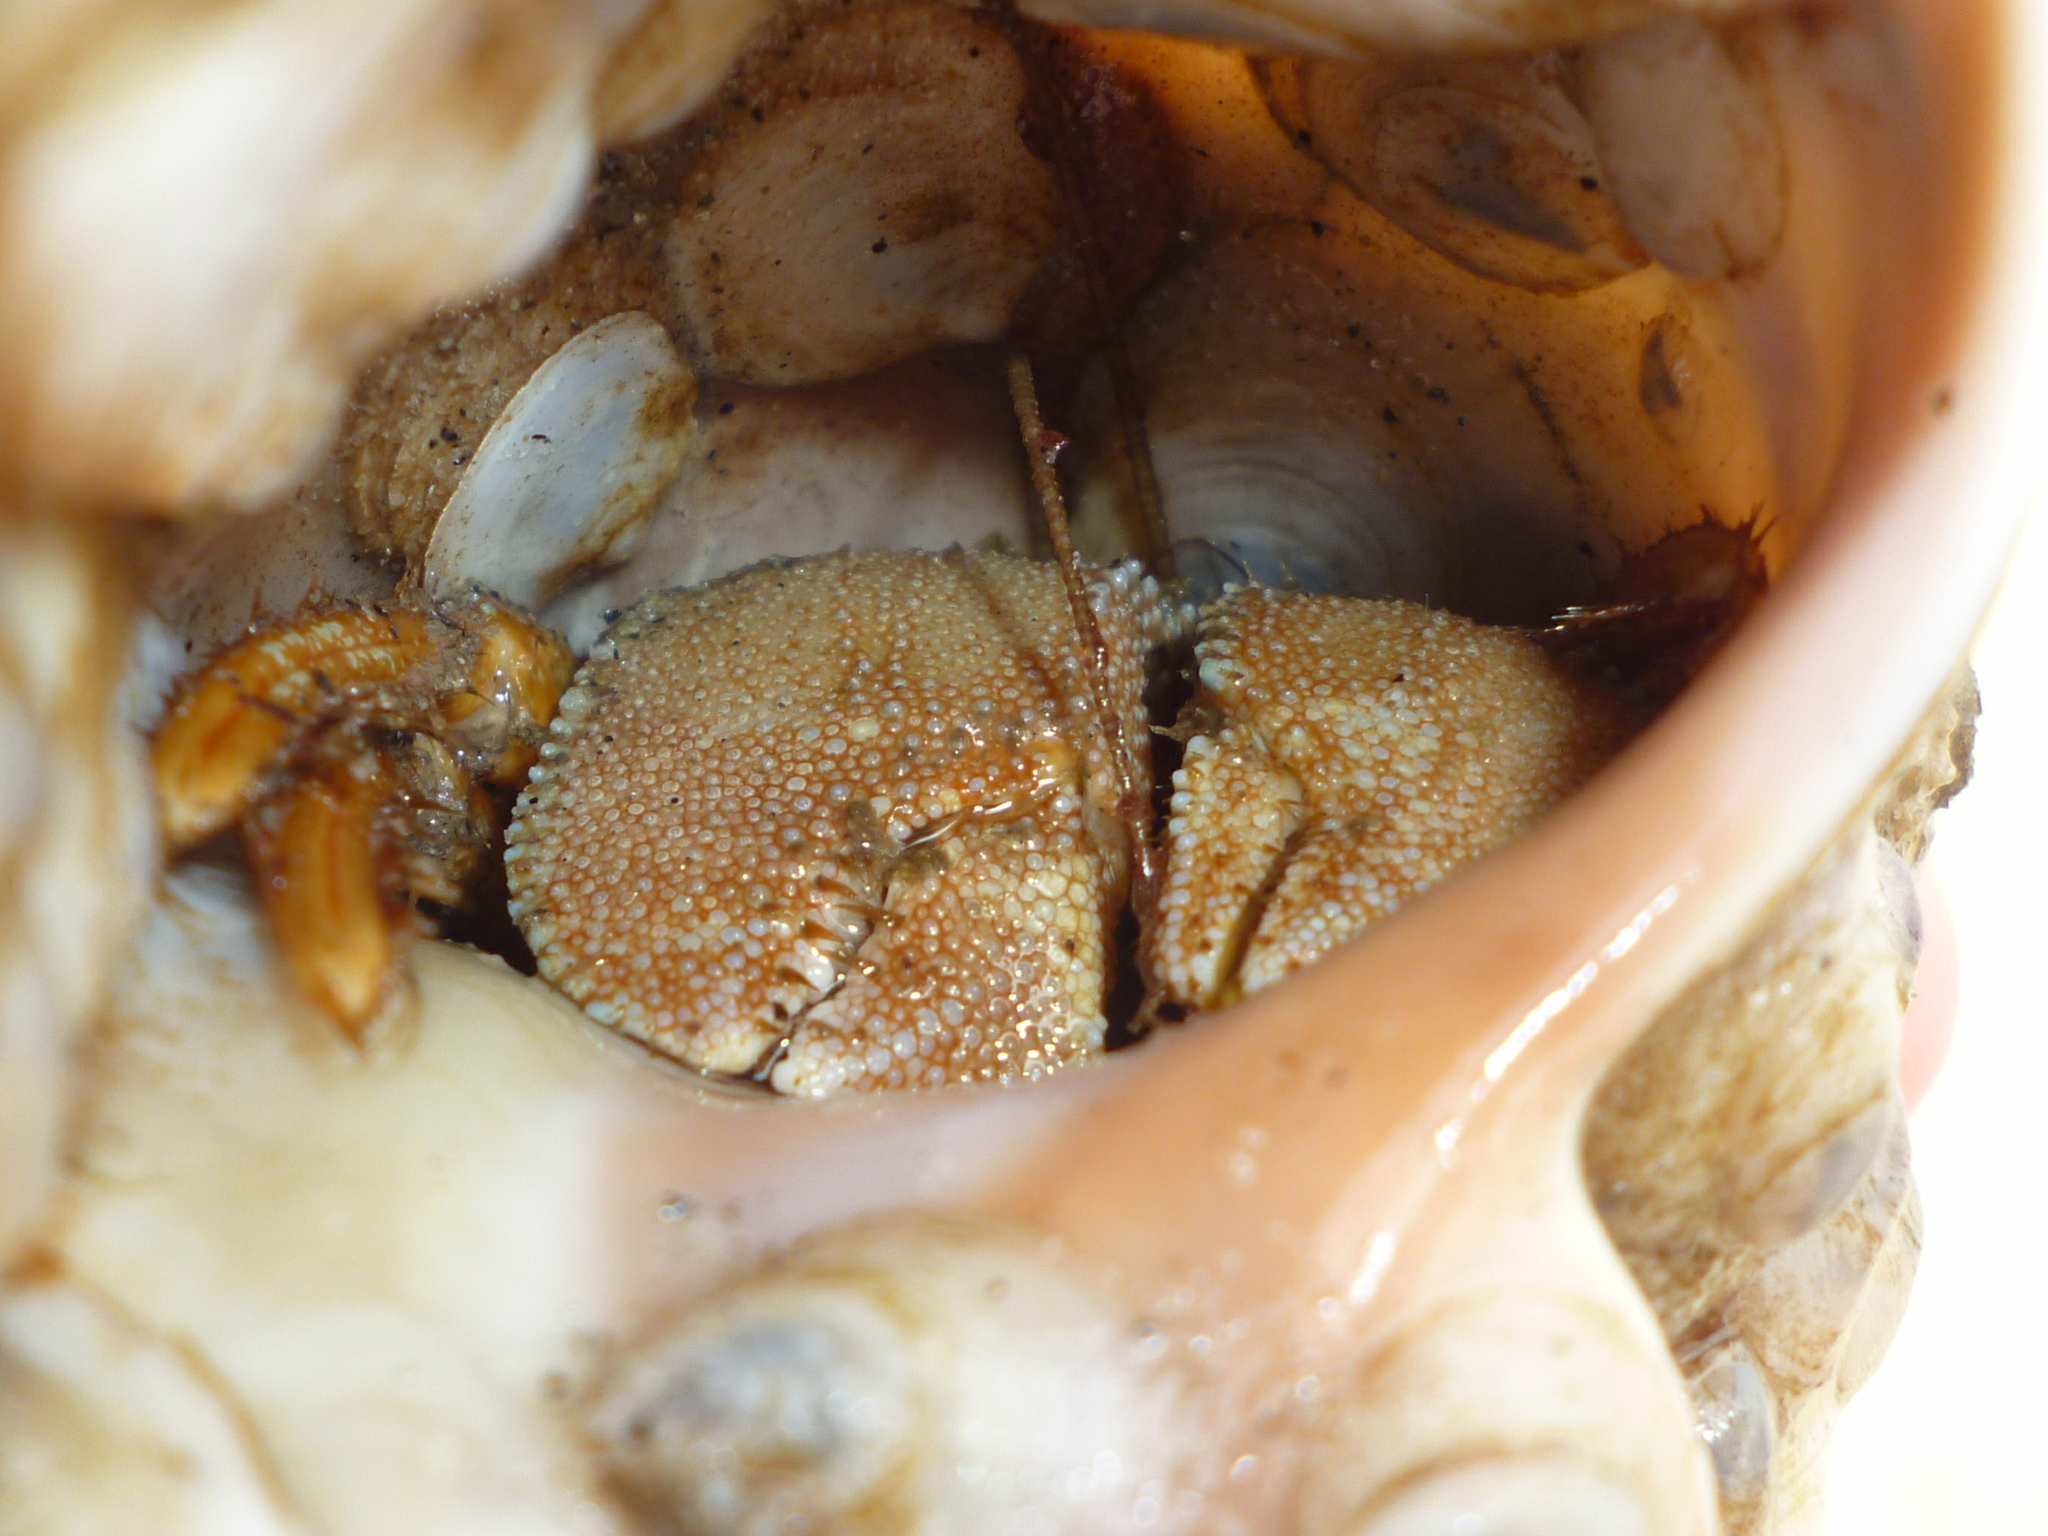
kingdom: Animalia
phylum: Arthropoda
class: Malacostraca
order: Decapoda
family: Paguridae
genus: Pagurus
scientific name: Pagurus pollicaris
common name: Flatclaw hermit
